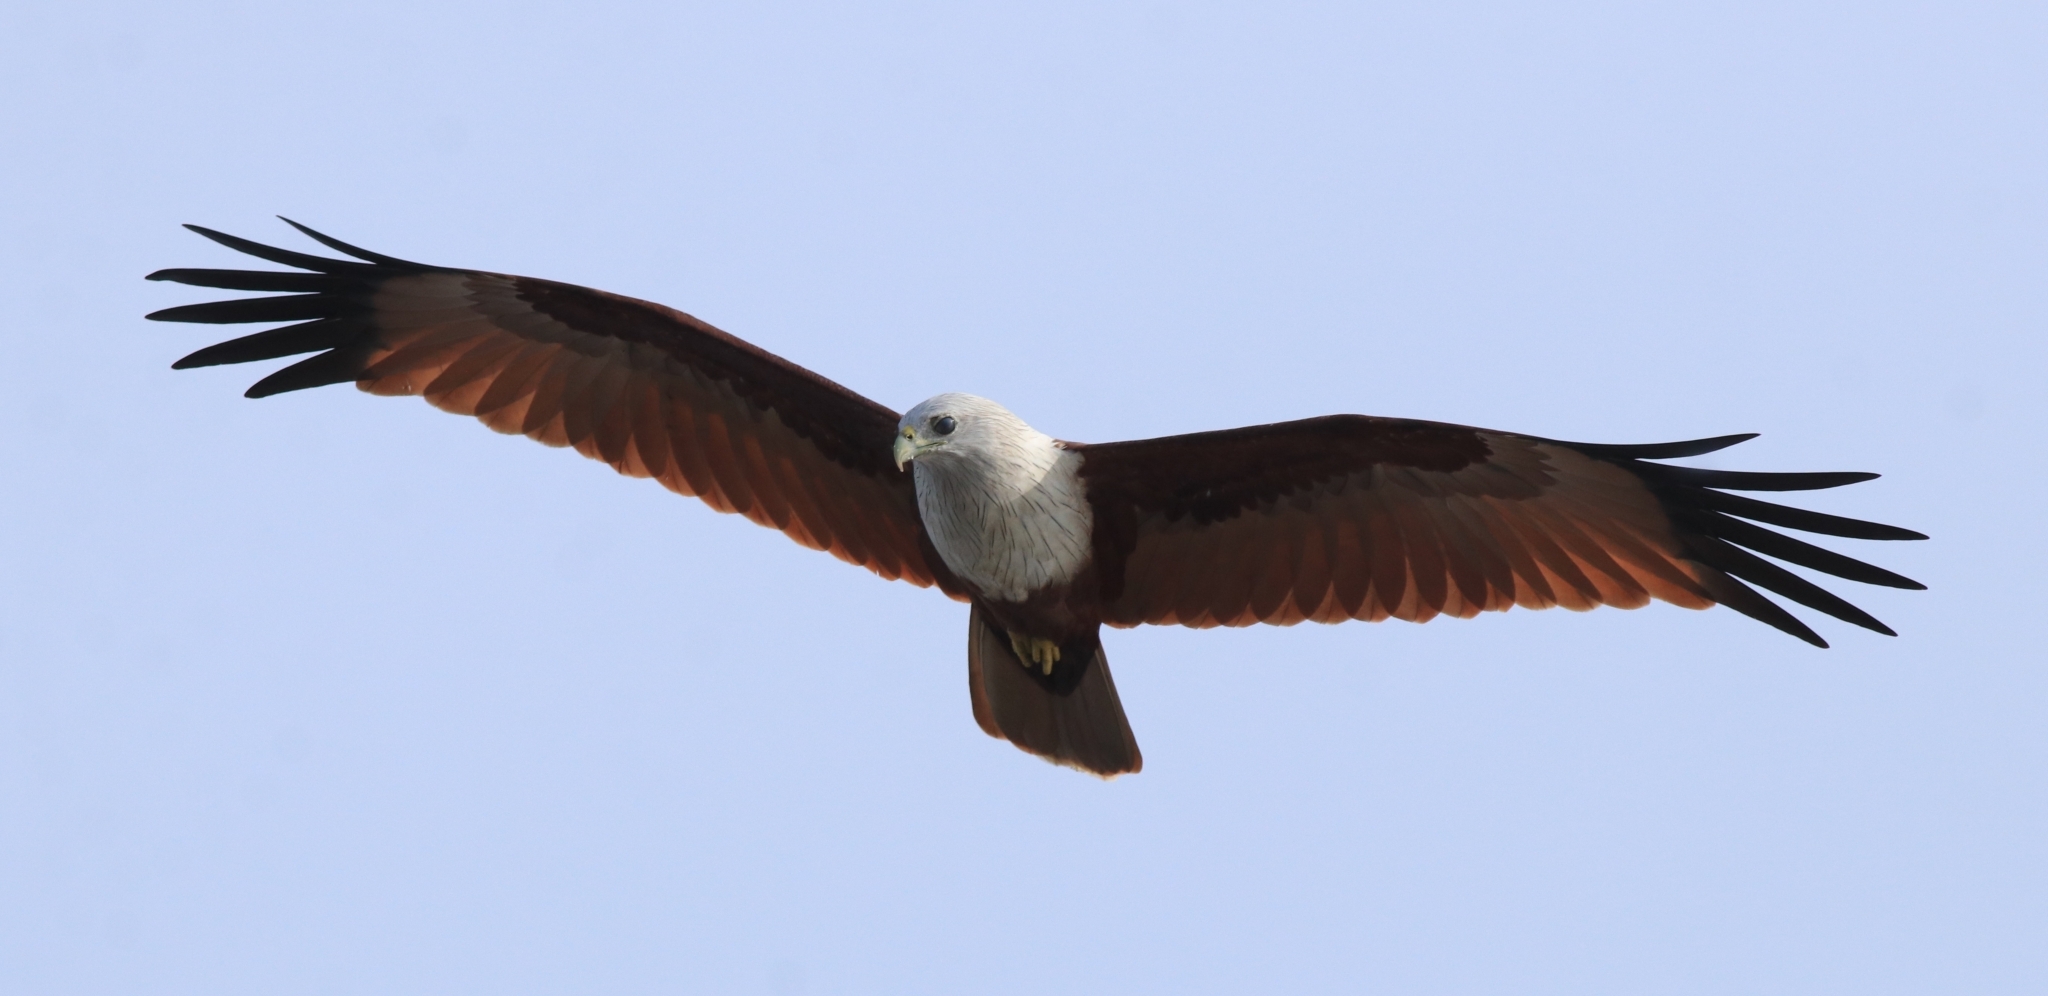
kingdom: Animalia
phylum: Chordata
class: Aves
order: Accipitriformes
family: Accipitridae
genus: Haliastur
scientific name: Haliastur indus
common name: Brahminy kite
